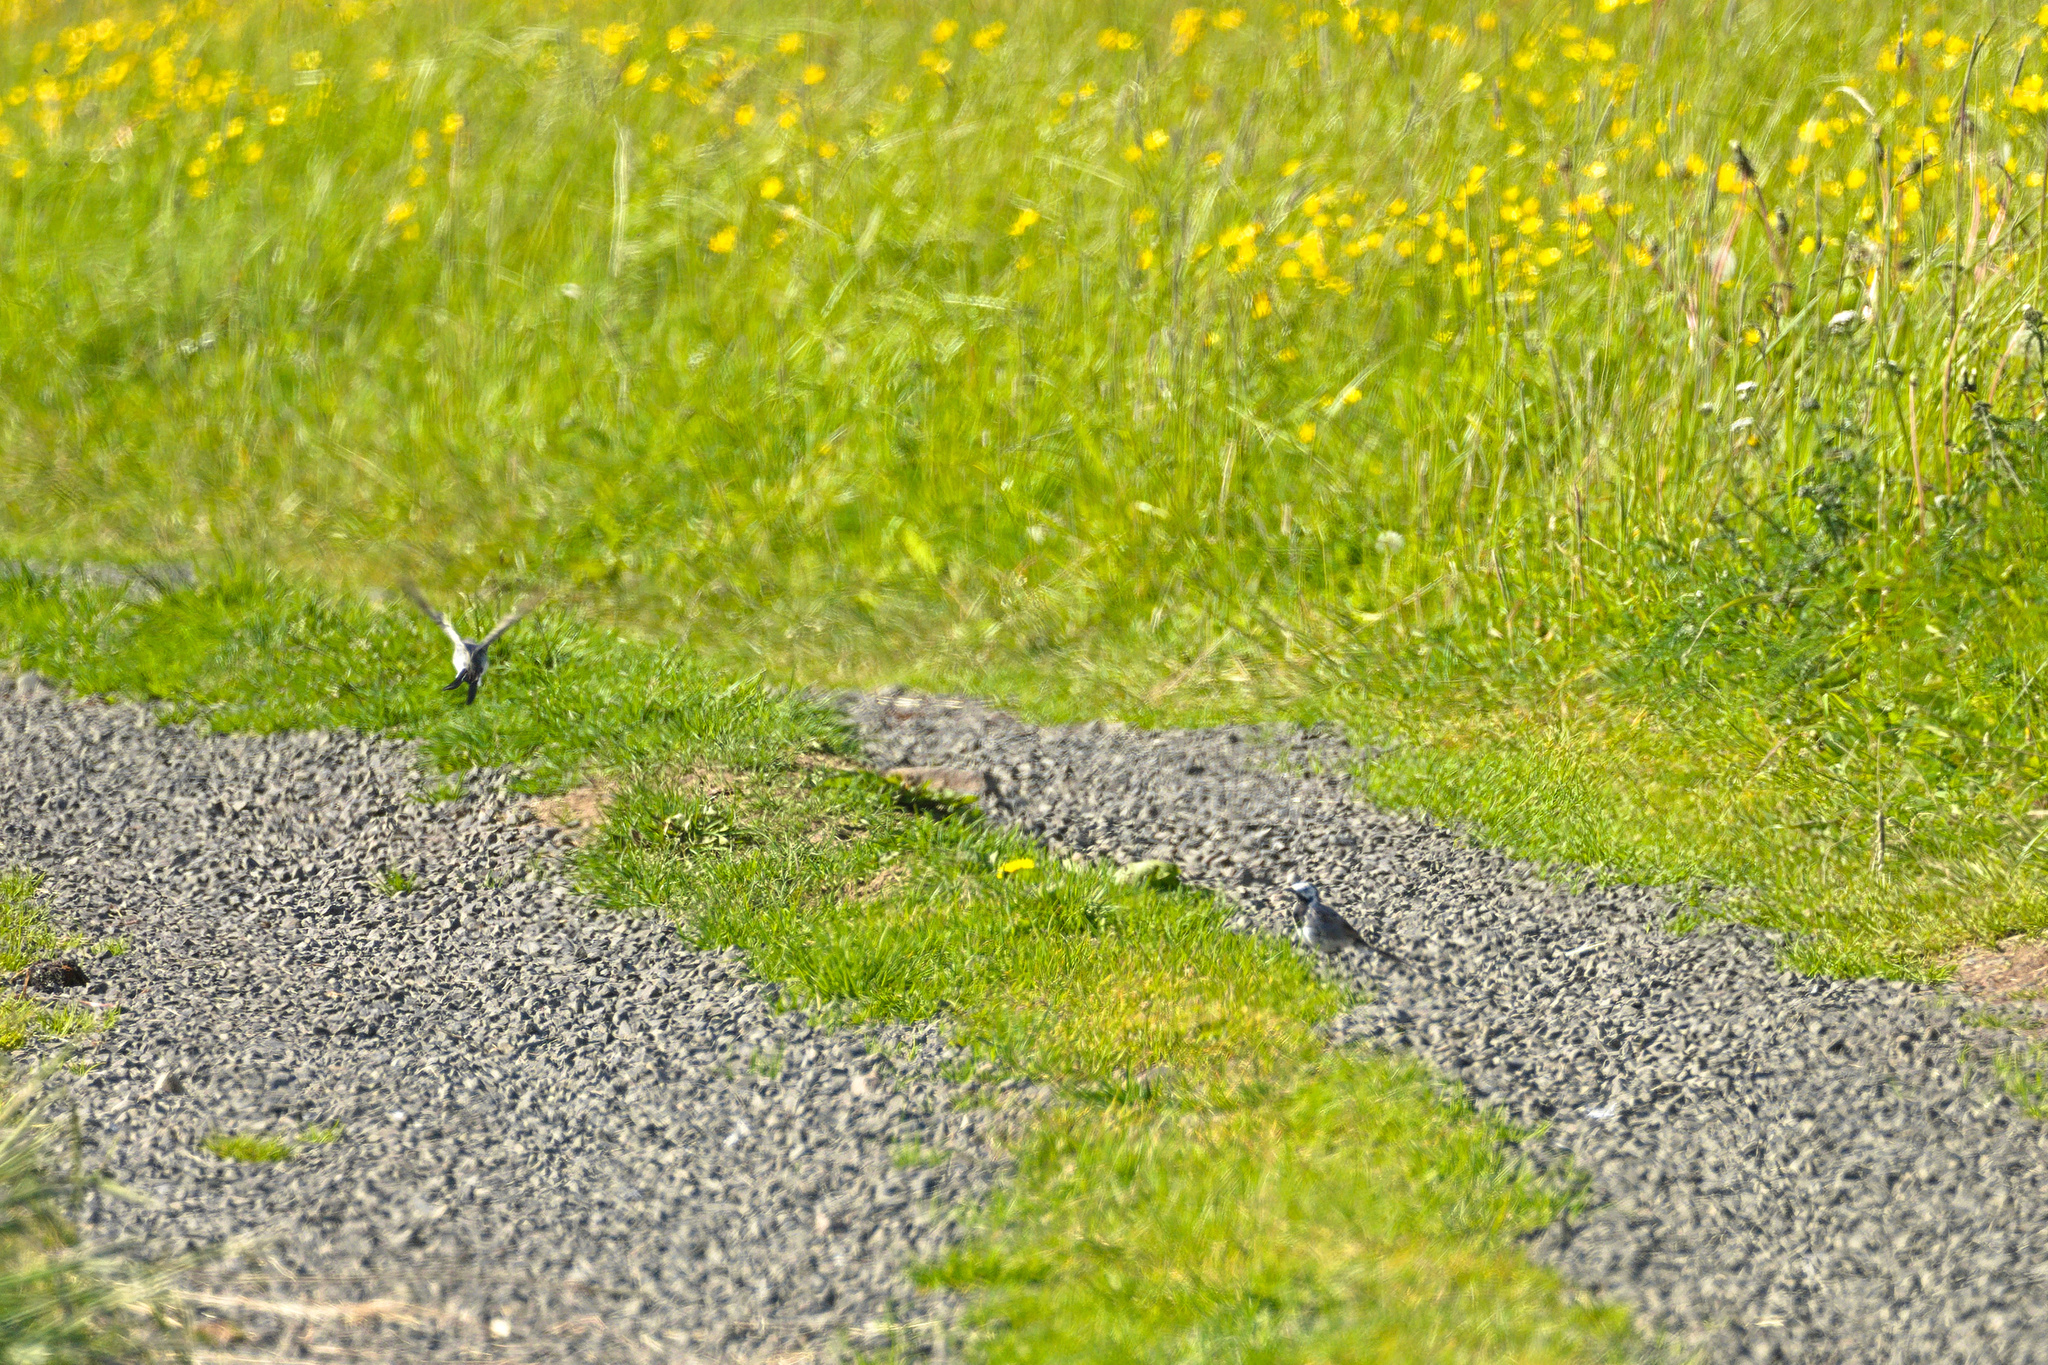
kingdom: Animalia
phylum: Chordata
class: Aves
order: Passeriformes
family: Motacillidae
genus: Motacilla
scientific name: Motacilla alba
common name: White wagtail
